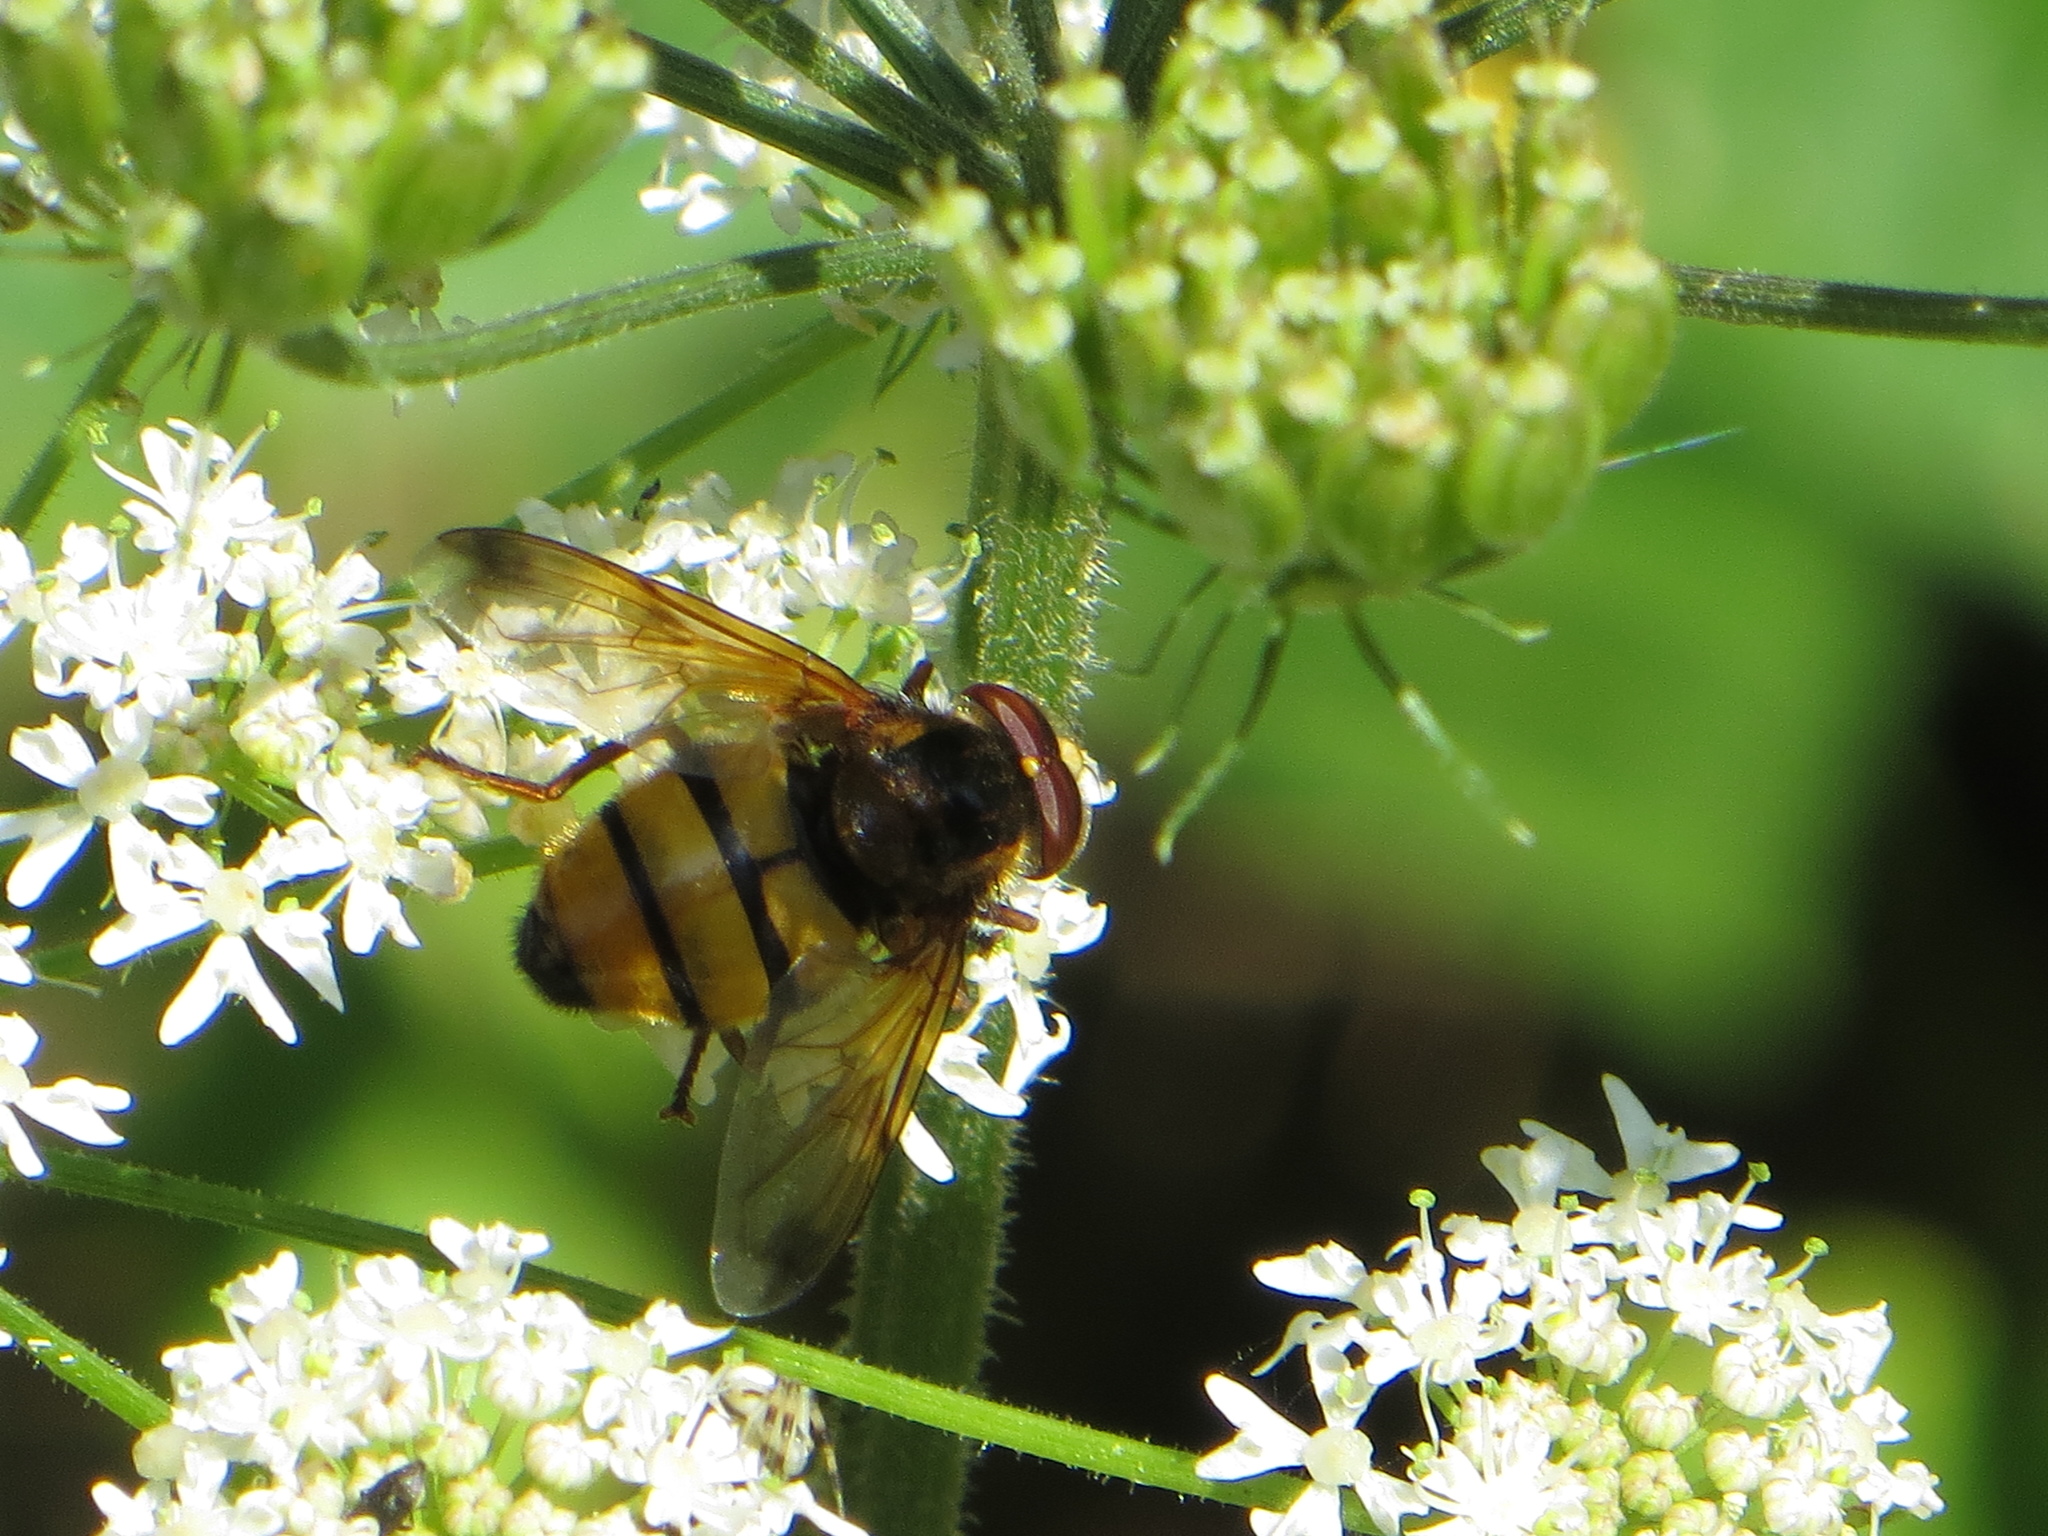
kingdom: Animalia
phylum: Arthropoda
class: Insecta
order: Diptera
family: Syrphidae
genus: Volucella
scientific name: Volucella inanis
